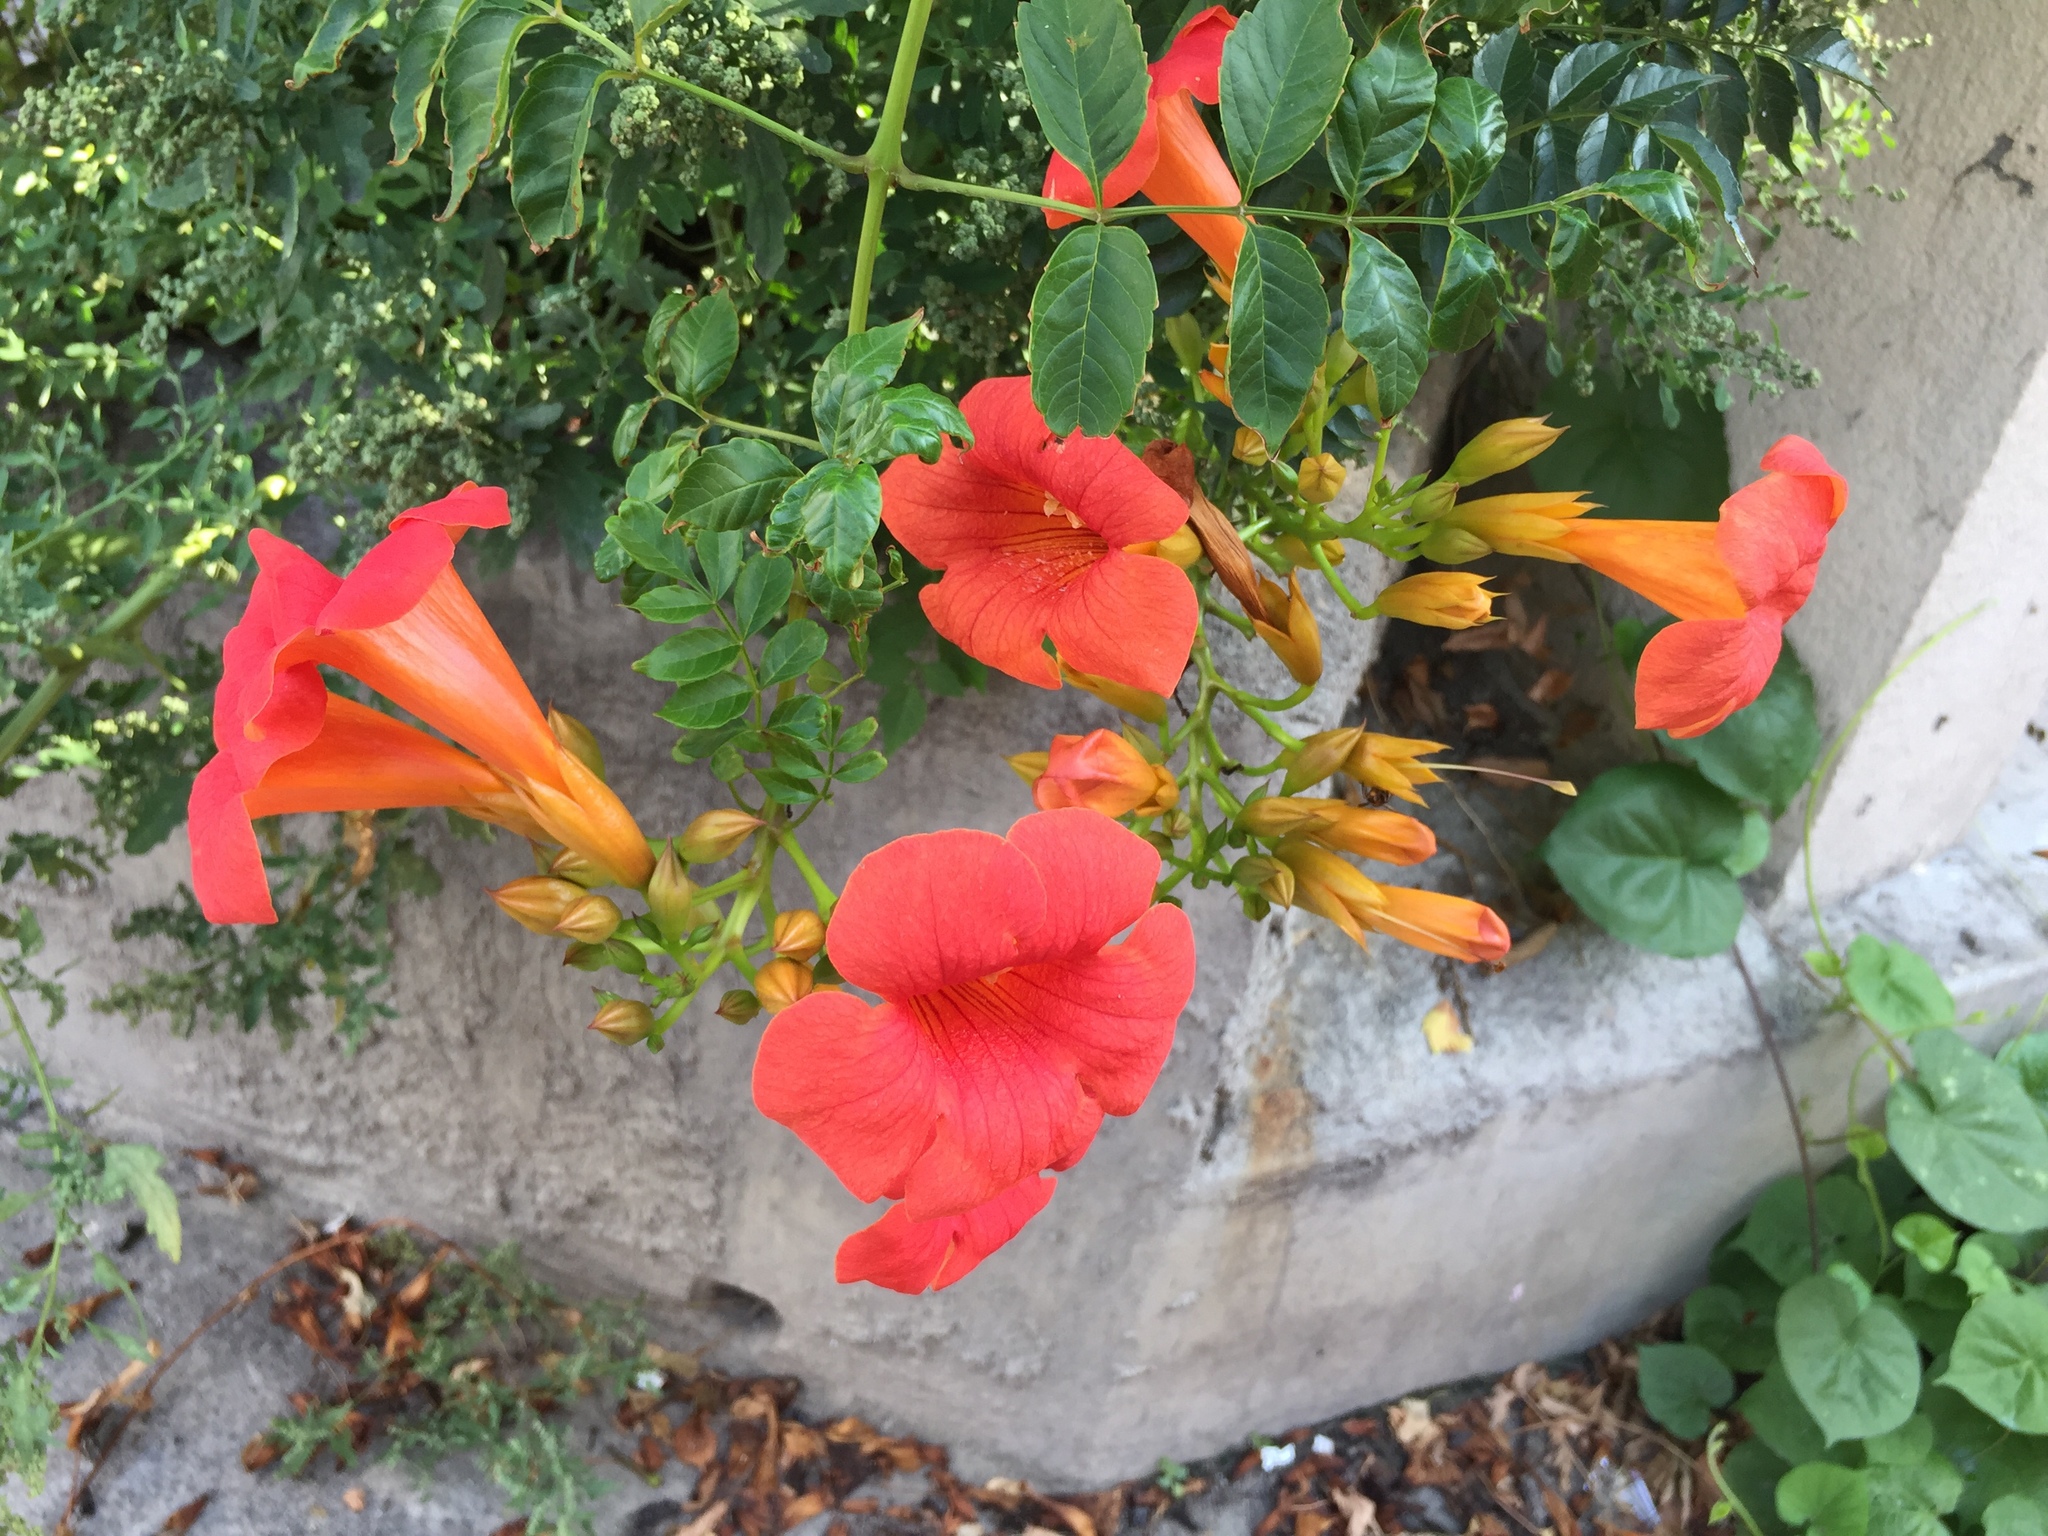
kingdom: Plantae
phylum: Tracheophyta
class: Magnoliopsida
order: Lamiales
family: Bignoniaceae
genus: Campsis
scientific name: Campsis tagliabueana
